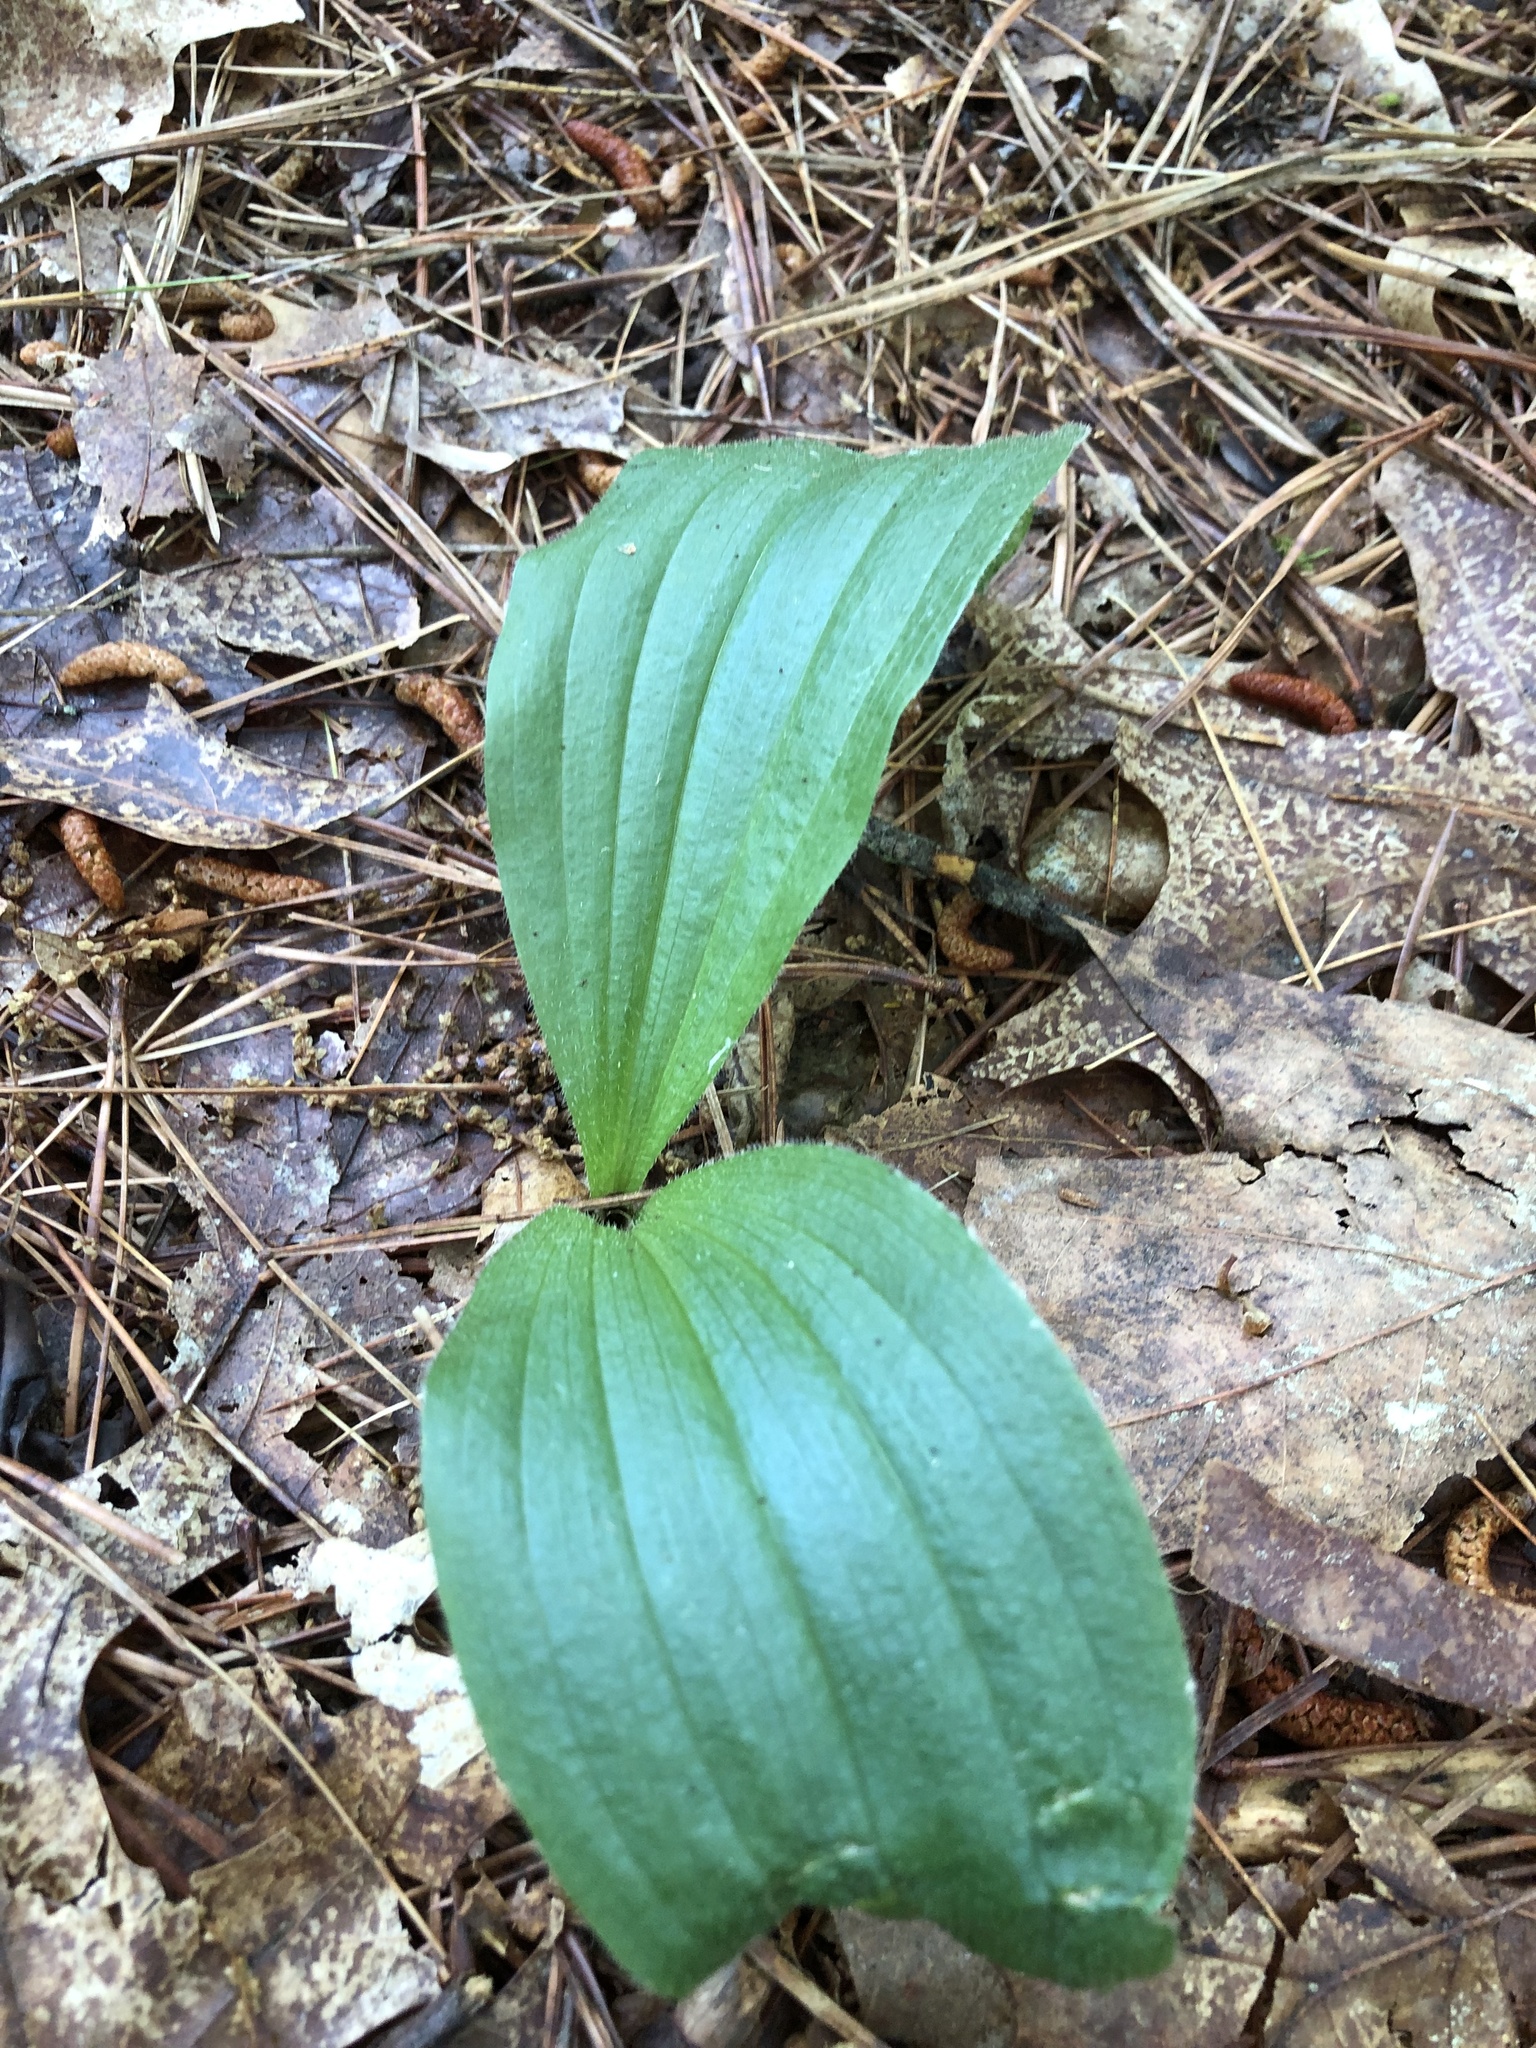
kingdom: Plantae
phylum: Tracheophyta
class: Liliopsida
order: Asparagales
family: Orchidaceae
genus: Cypripedium
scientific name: Cypripedium acaule
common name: Pink lady's-slipper
